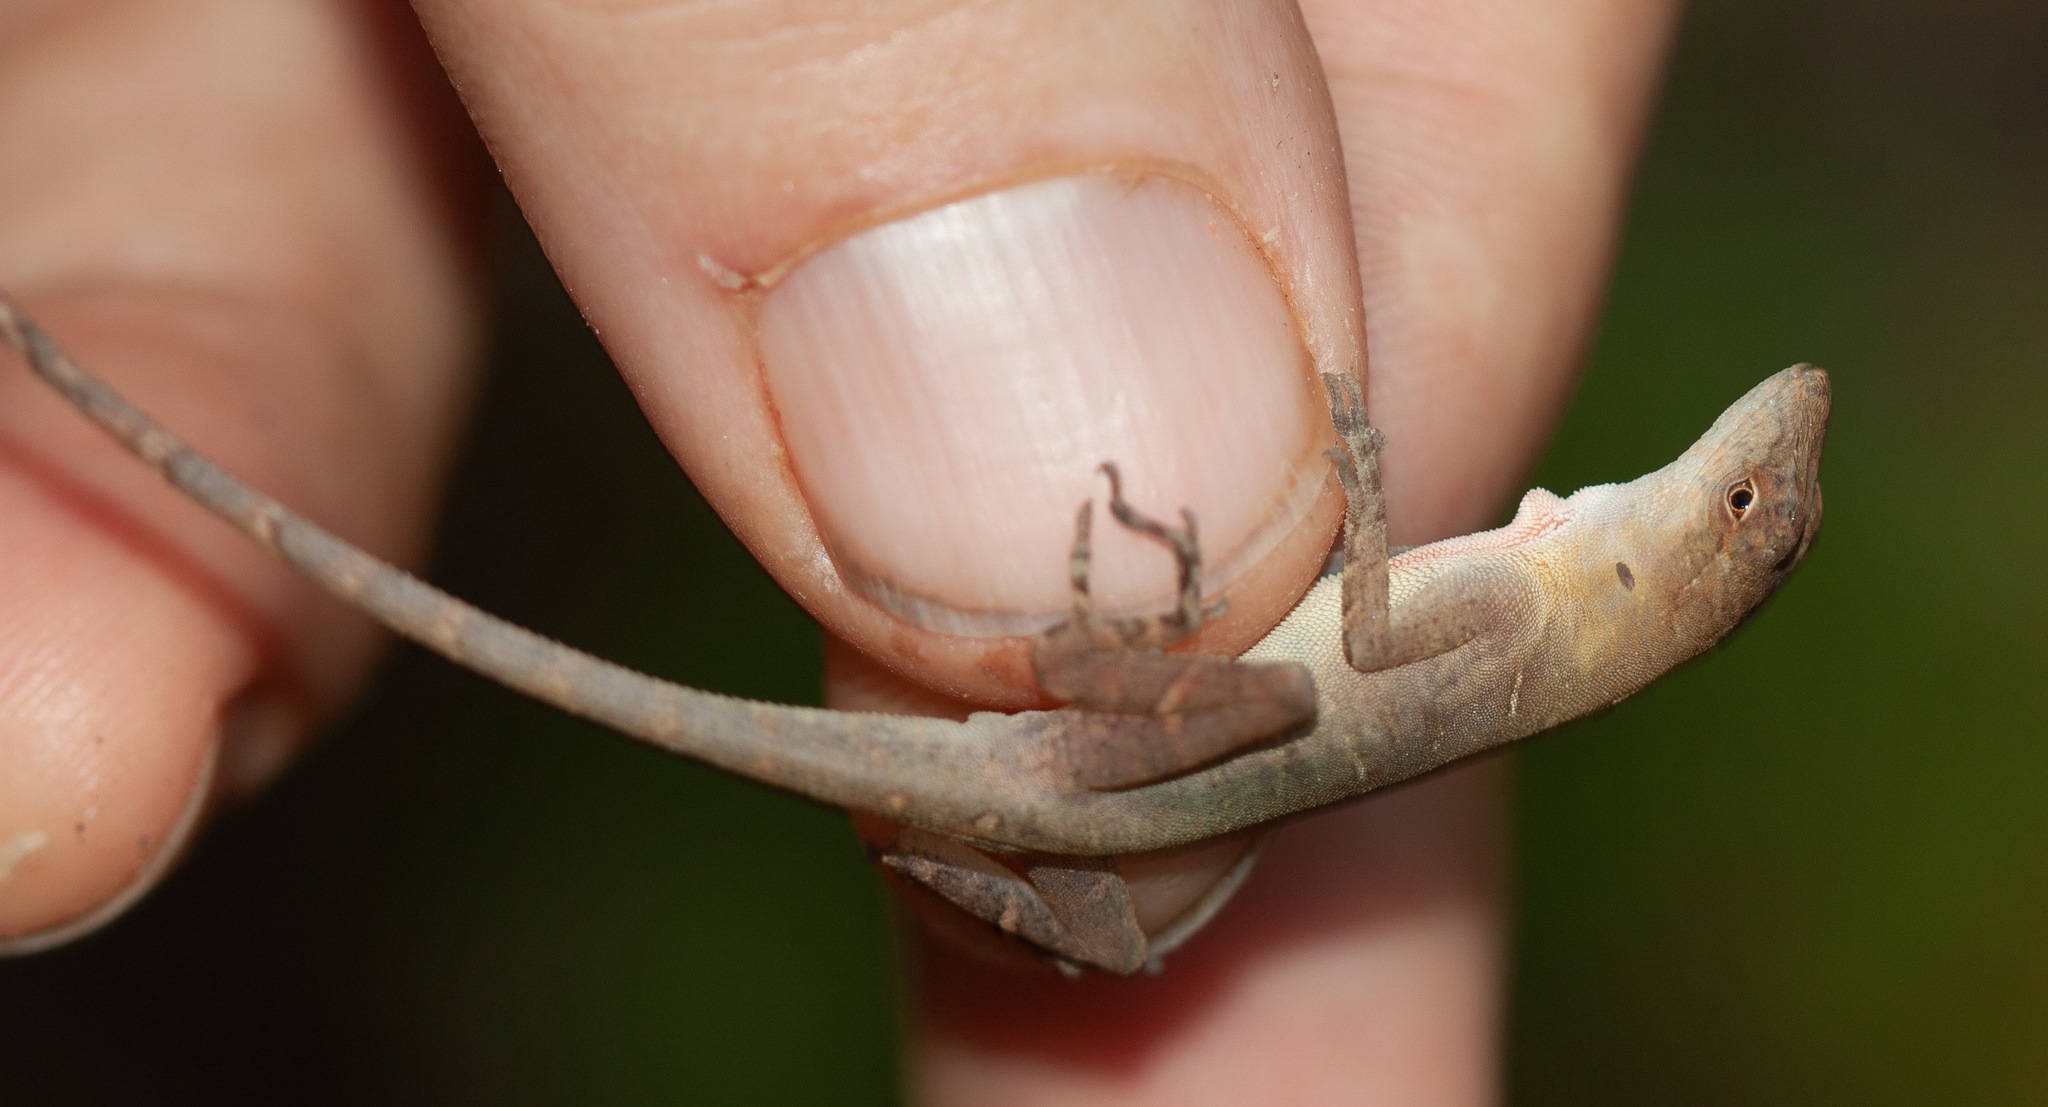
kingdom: Animalia
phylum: Chordata
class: Squamata
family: Dactyloidae
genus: Anolis
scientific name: Anolis cupreus
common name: Copper anole
